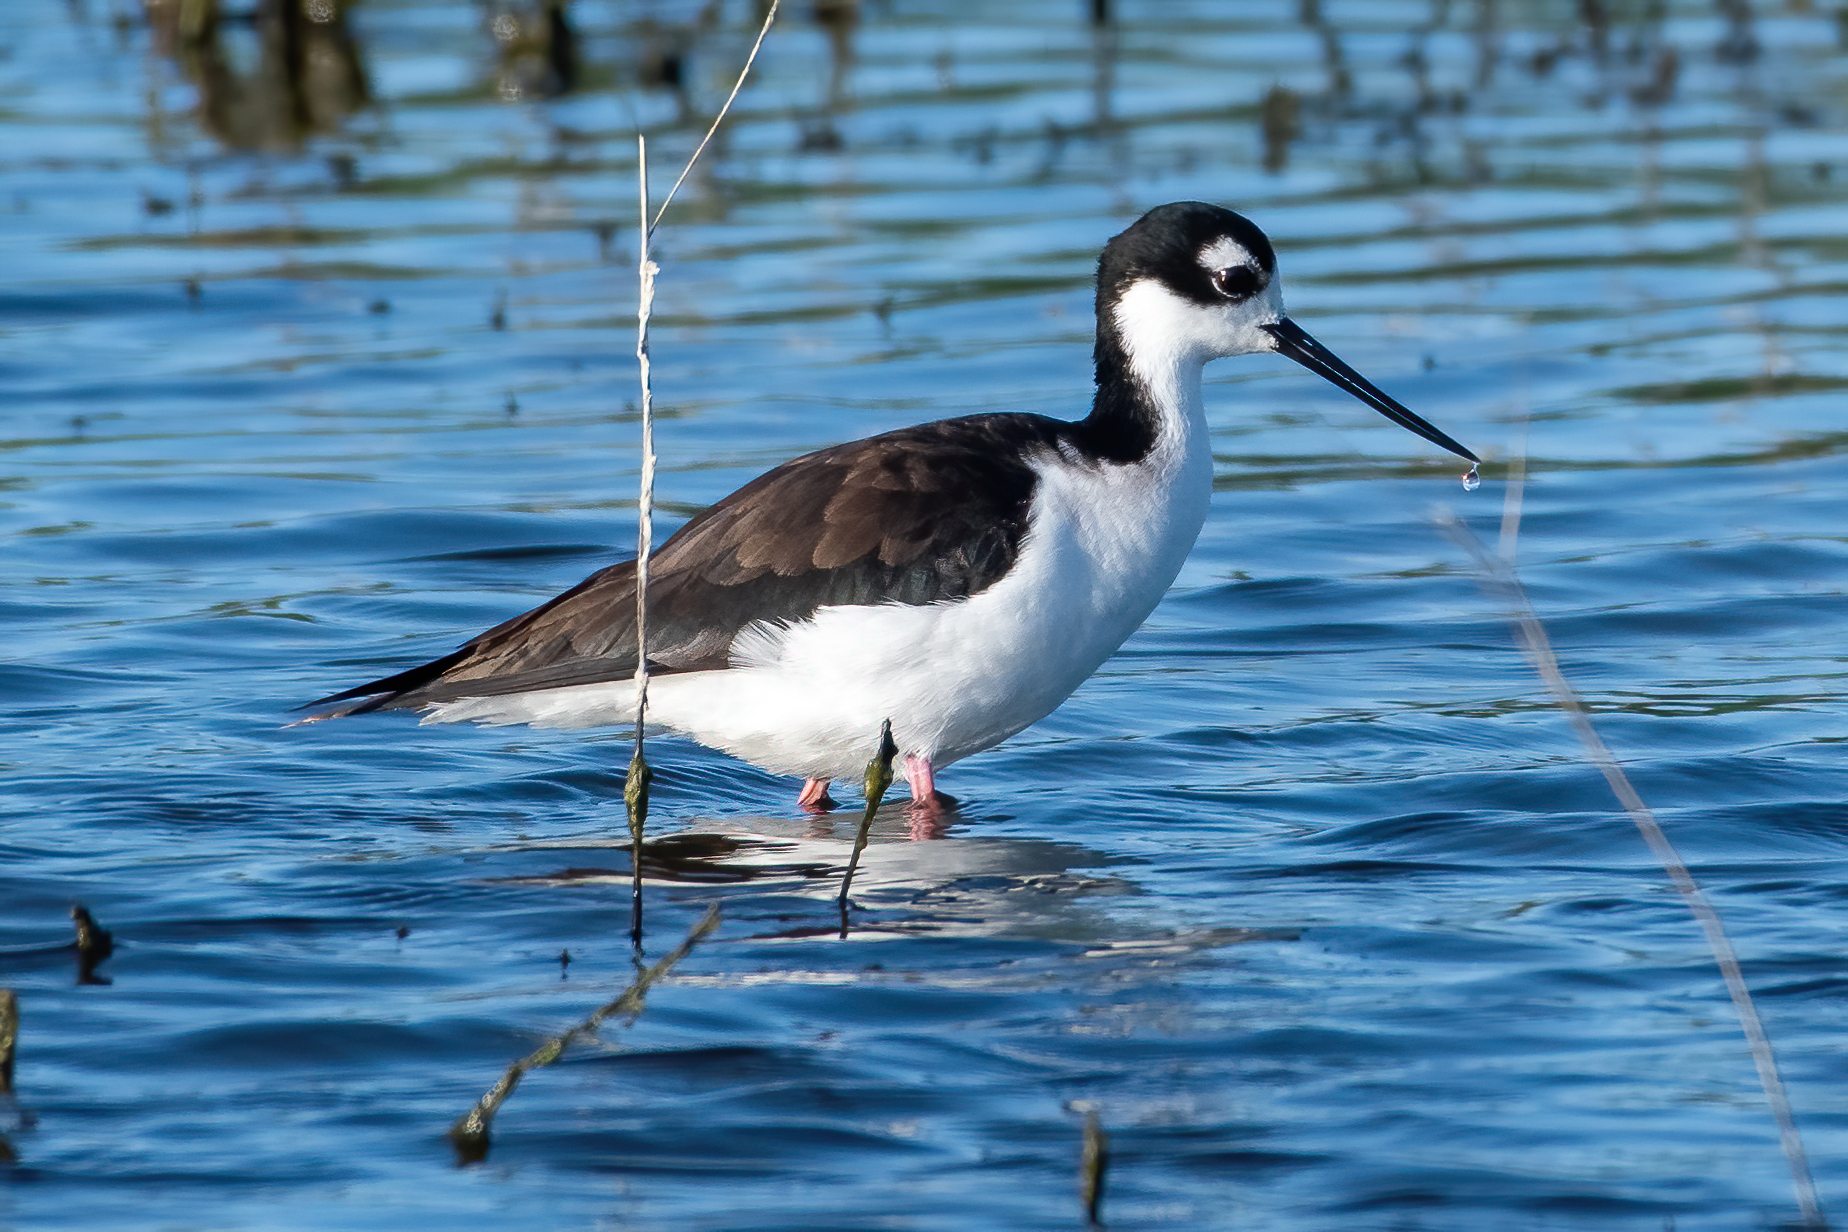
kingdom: Animalia
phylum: Chordata
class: Aves
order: Charadriiformes
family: Recurvirostridae
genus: Himantopus
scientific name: Himantopus mexicanus
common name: Black-necked stilt
